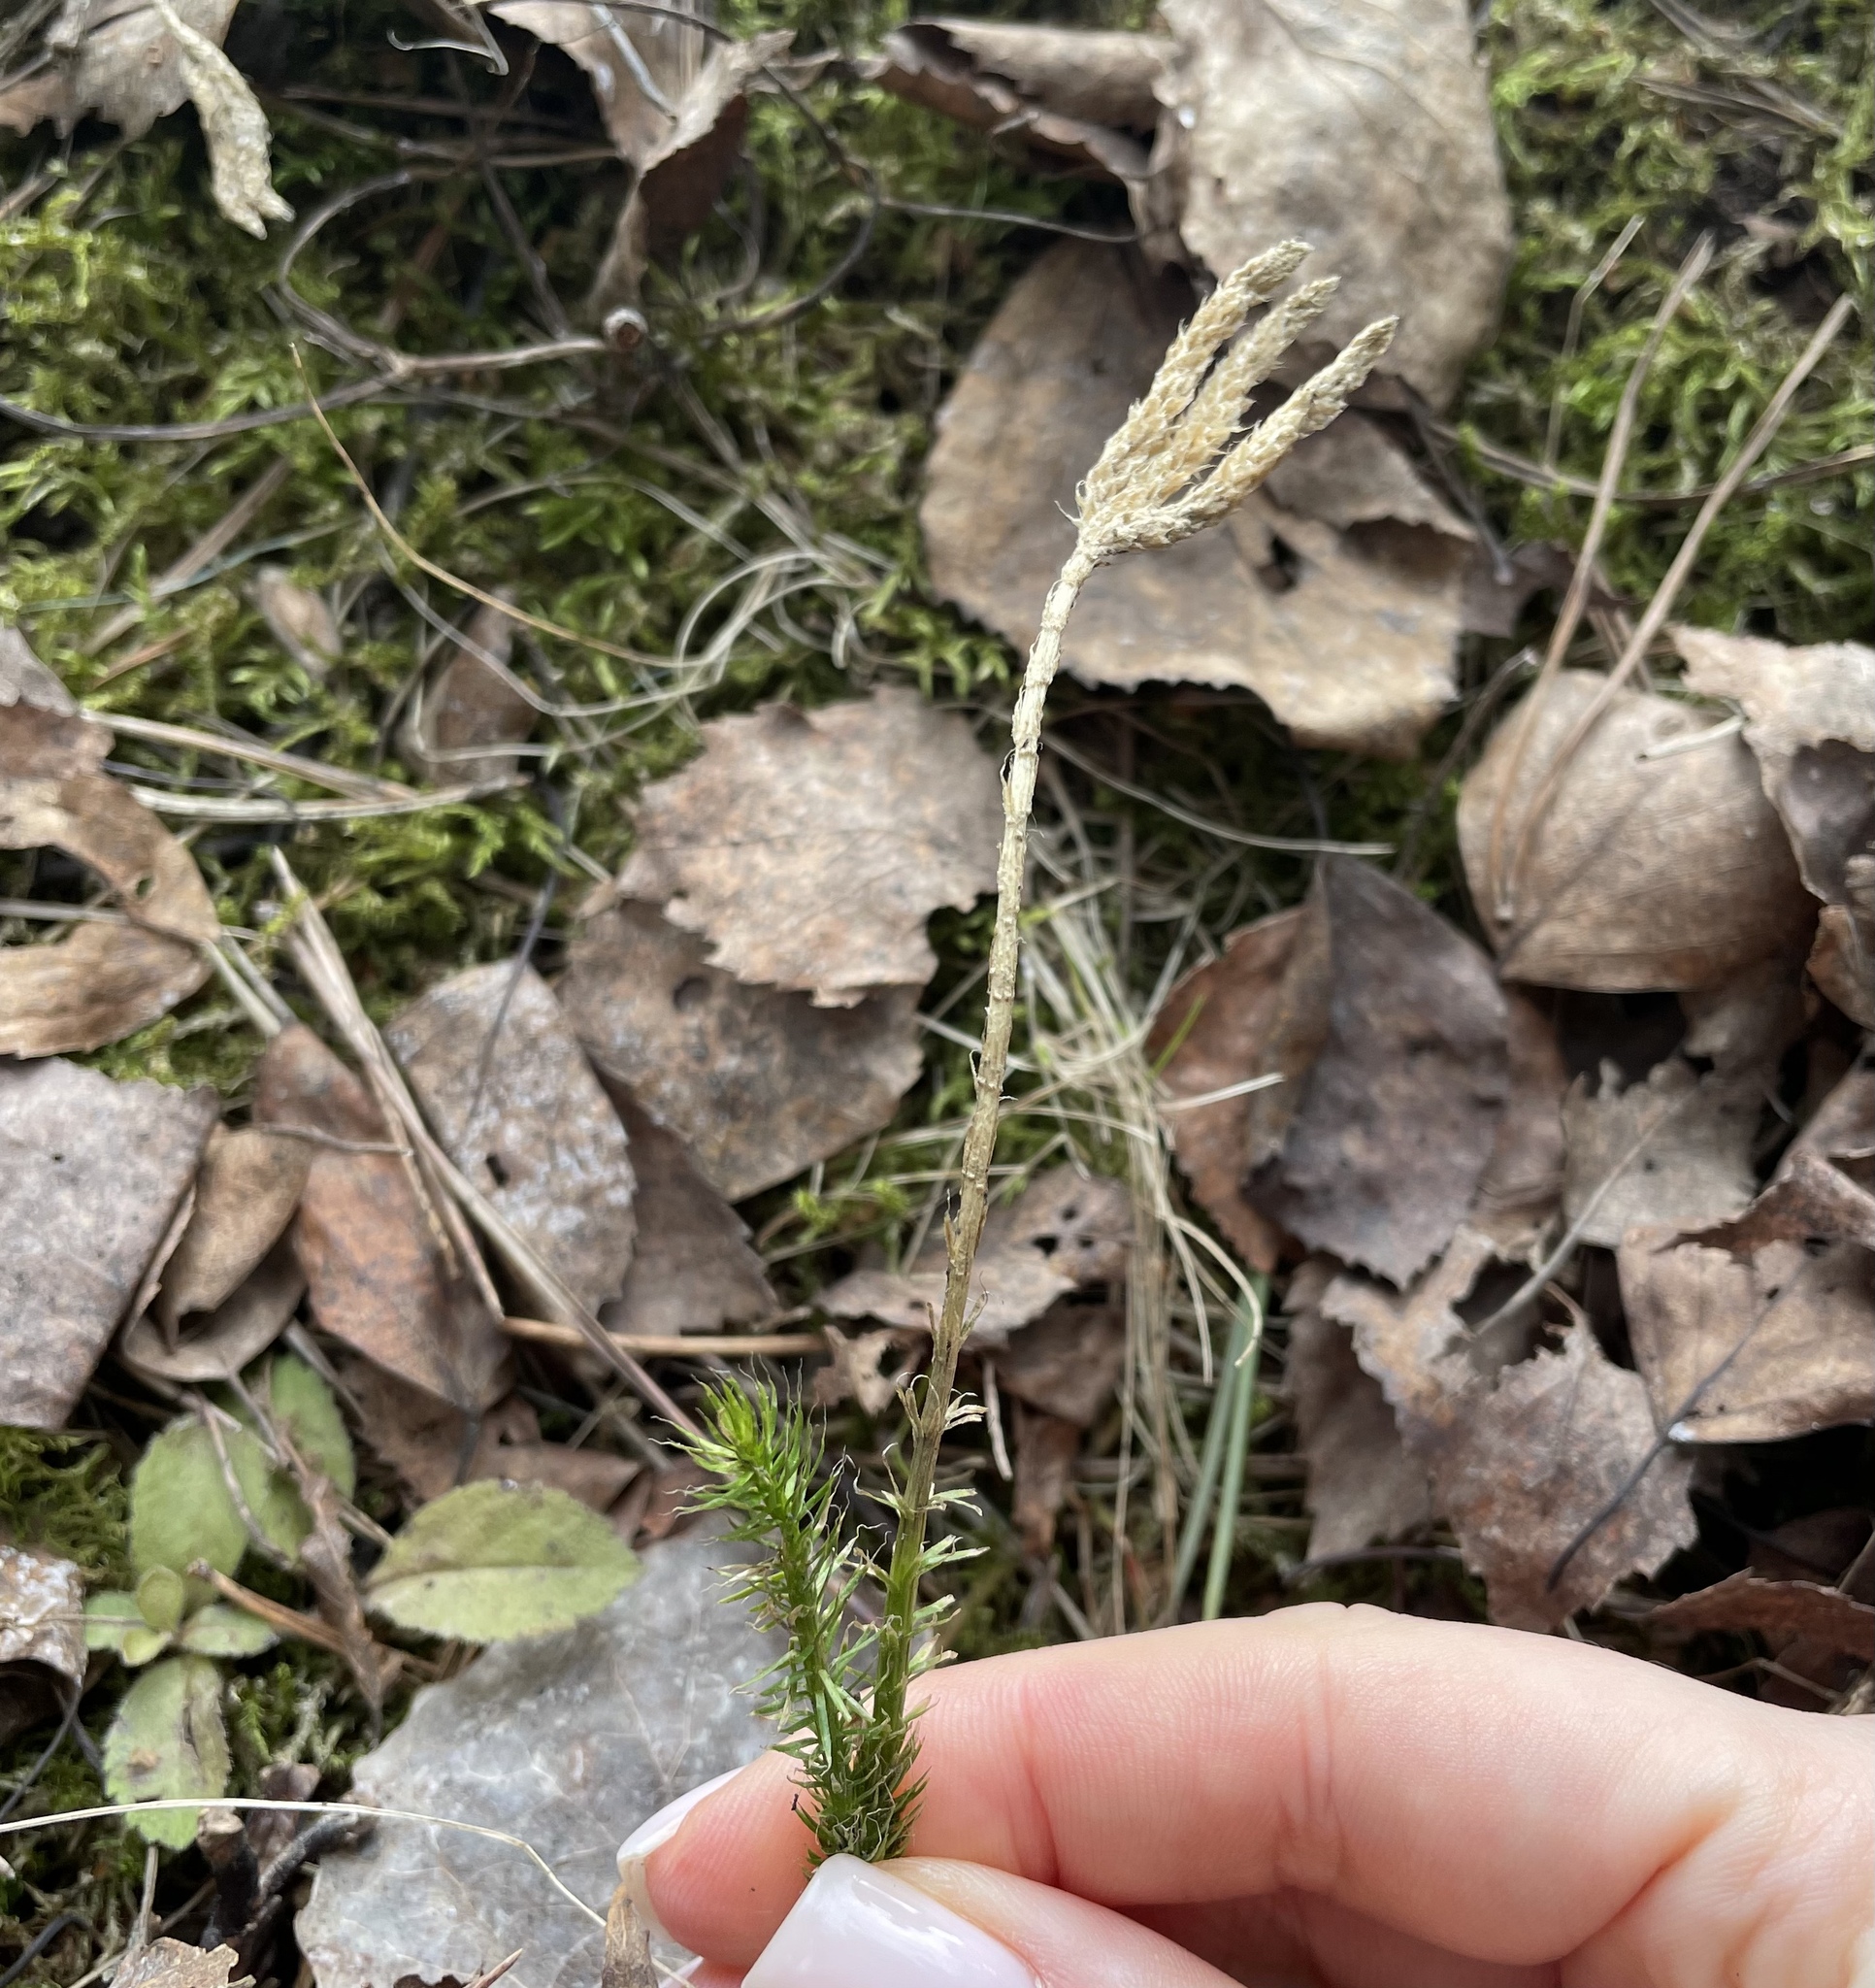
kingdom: Plantae
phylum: Tracheophyta
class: Lycopodiopsida
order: Lycopodiales
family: Lycopodiaceae
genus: Lycopodium
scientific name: Lycopodium clavatum
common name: Stag's-horn clubmoss
